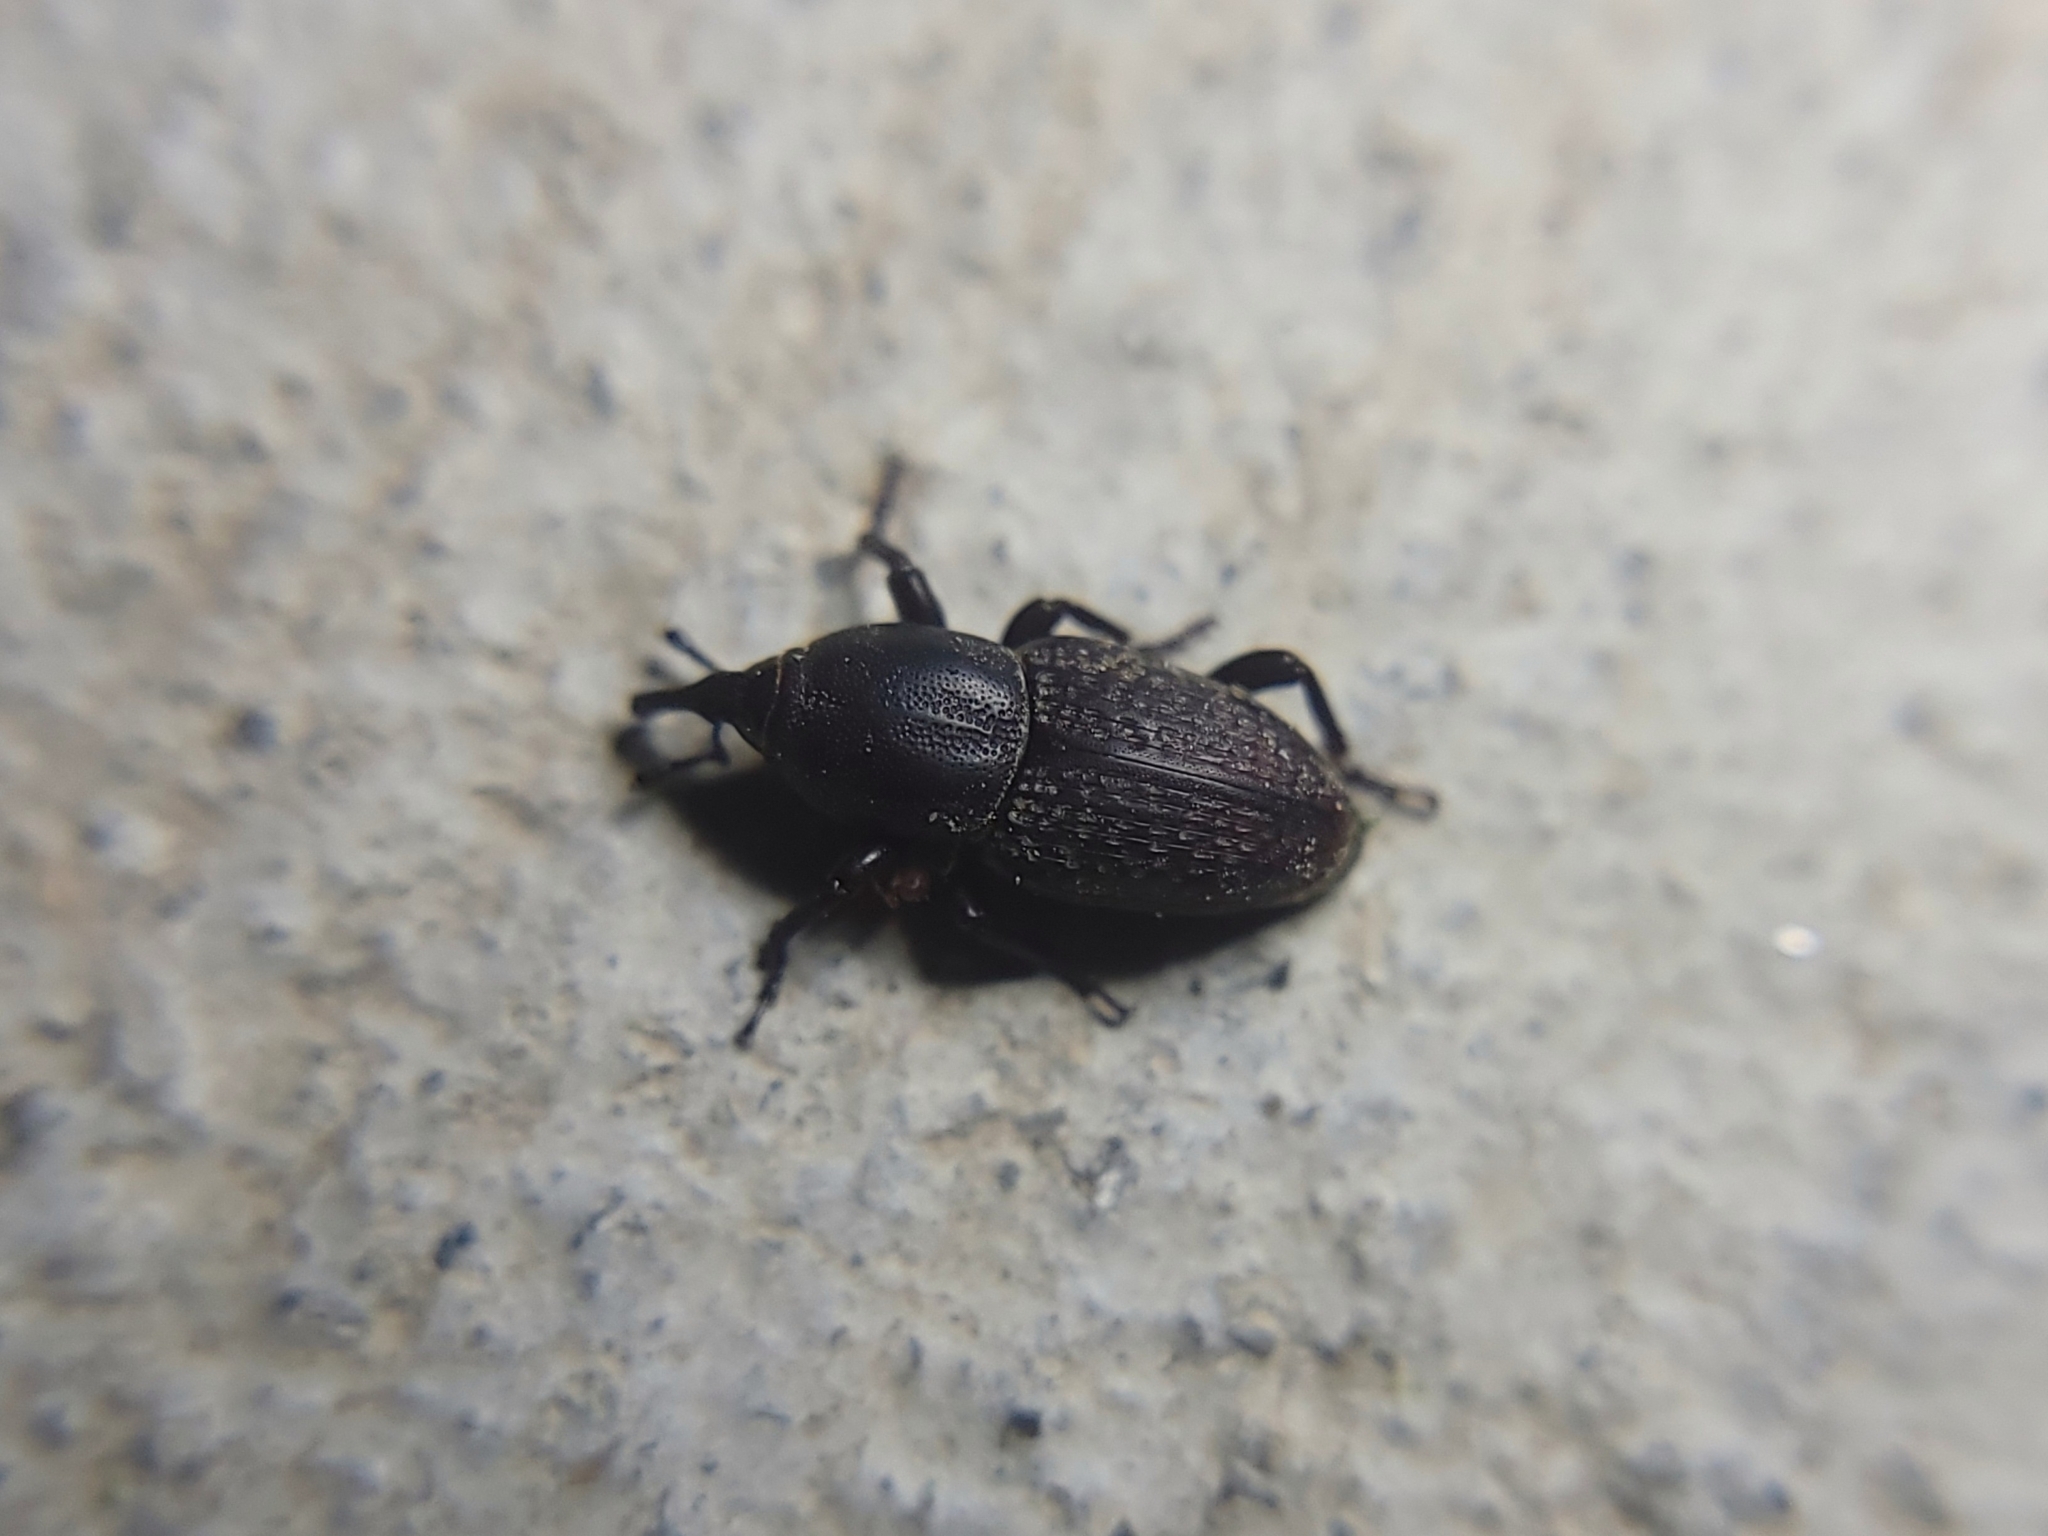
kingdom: Animalia
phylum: Arthropoda
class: Insecta
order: Coleoptera
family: Dryophthoridae
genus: Sphenophorus
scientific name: Sphenophorus cicatristriatus
